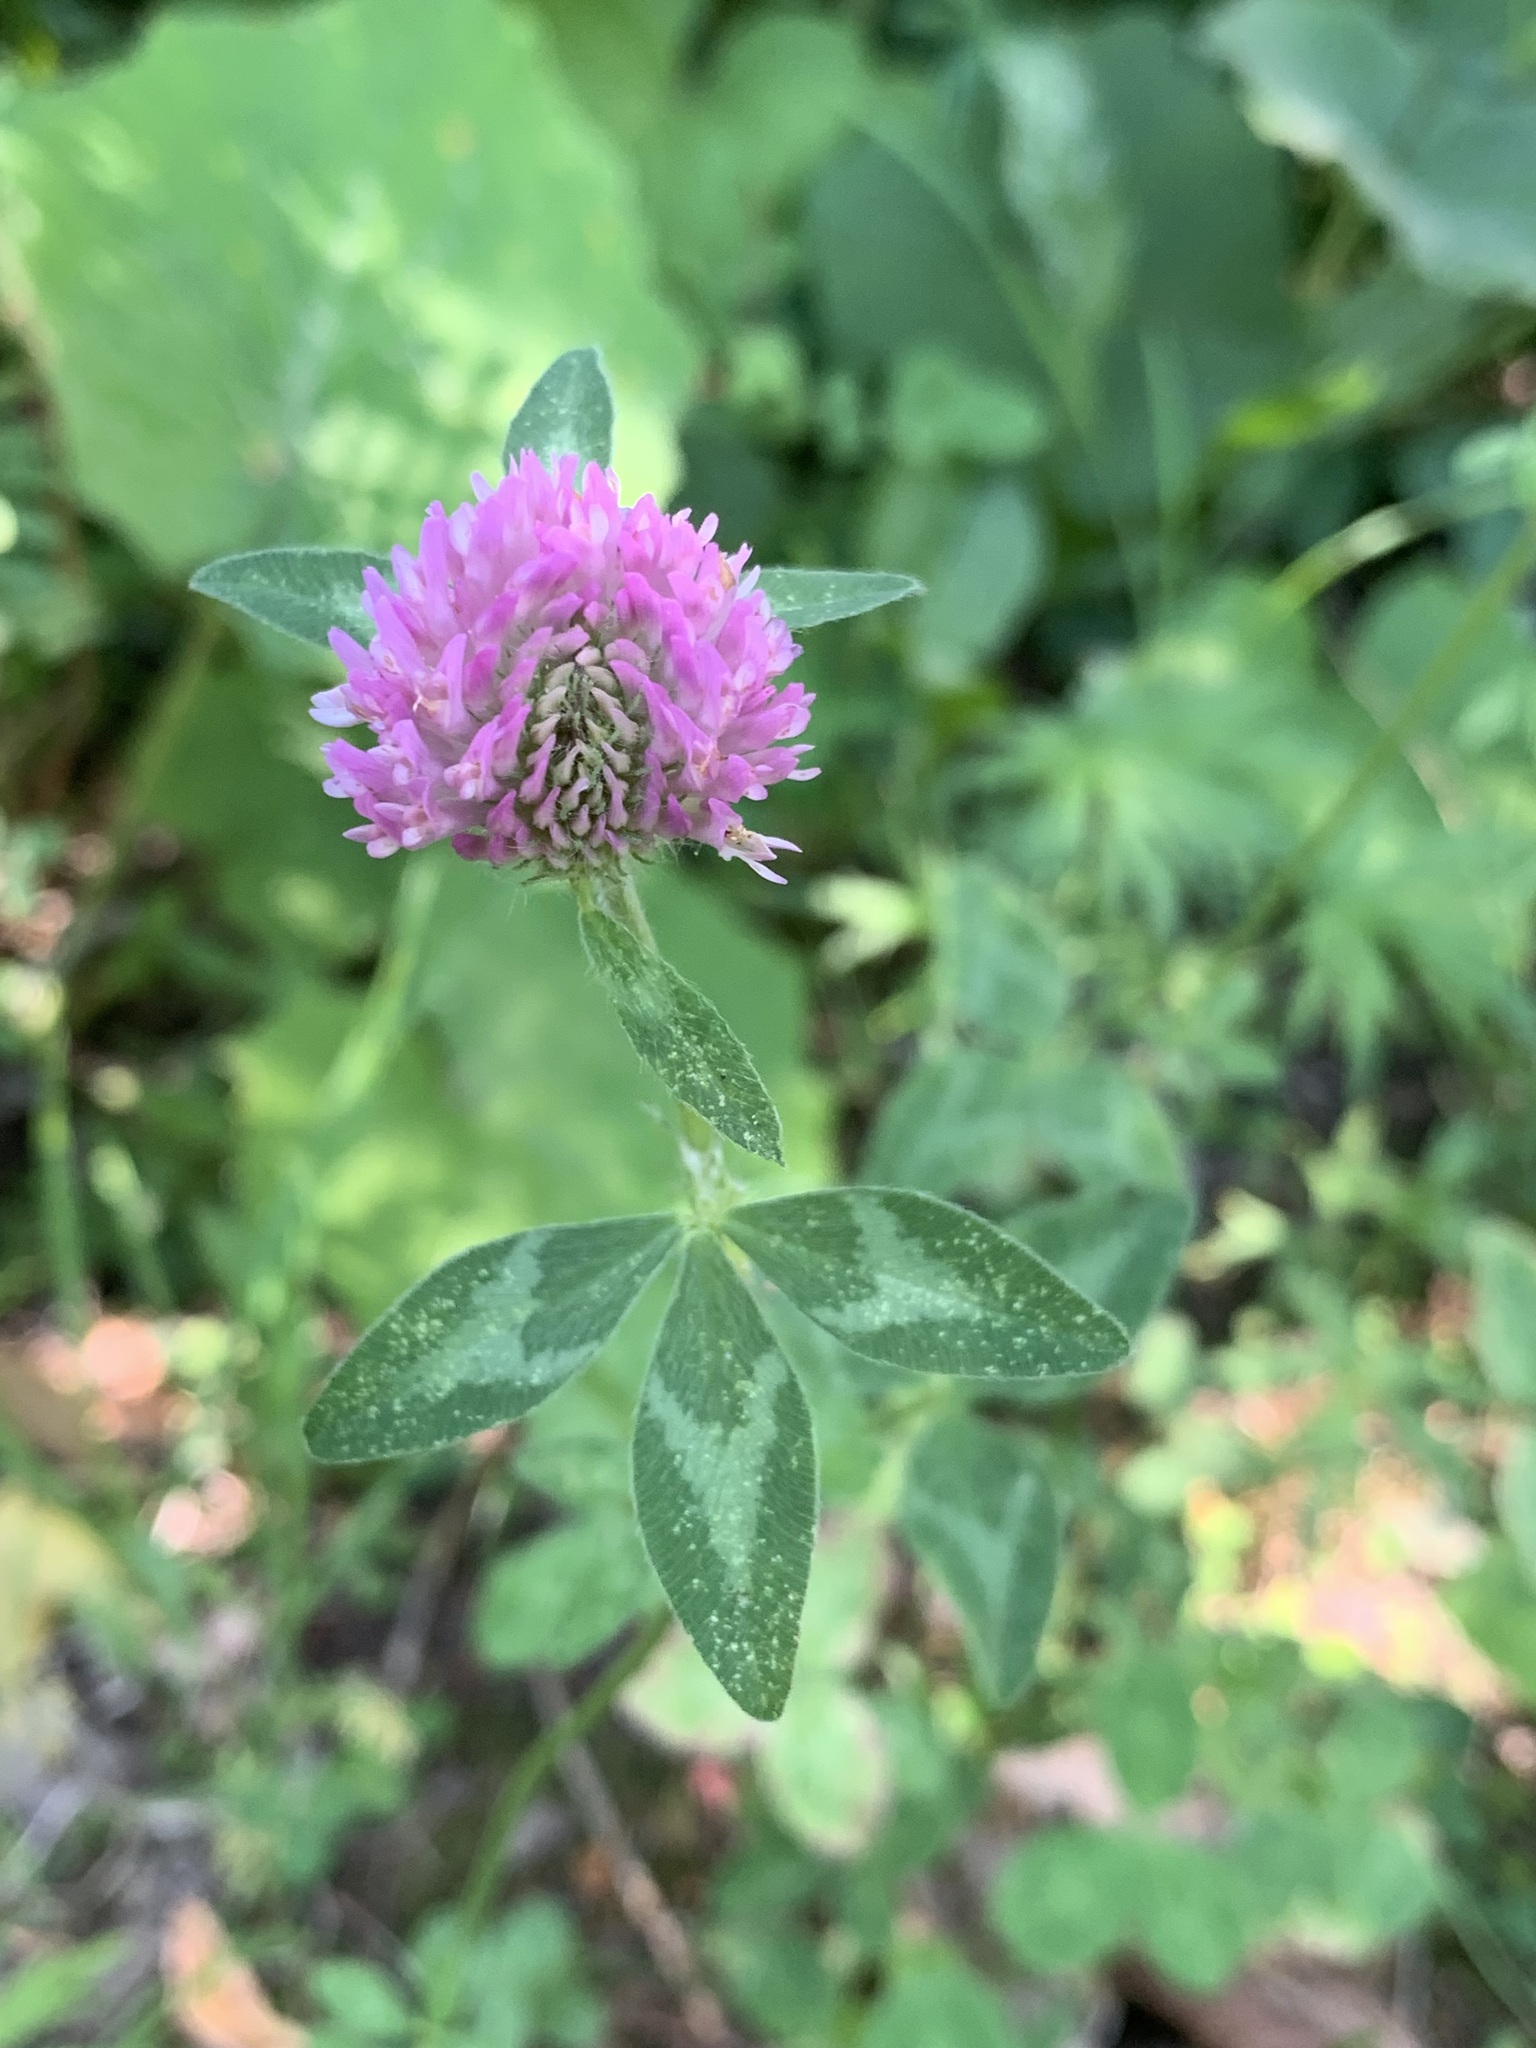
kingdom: Plantae
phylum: Tracheophyta
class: Magnoliopsida
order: Fabales
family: Fabaceae
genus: Trifolium
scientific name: Trifolium pratense
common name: Red clover
